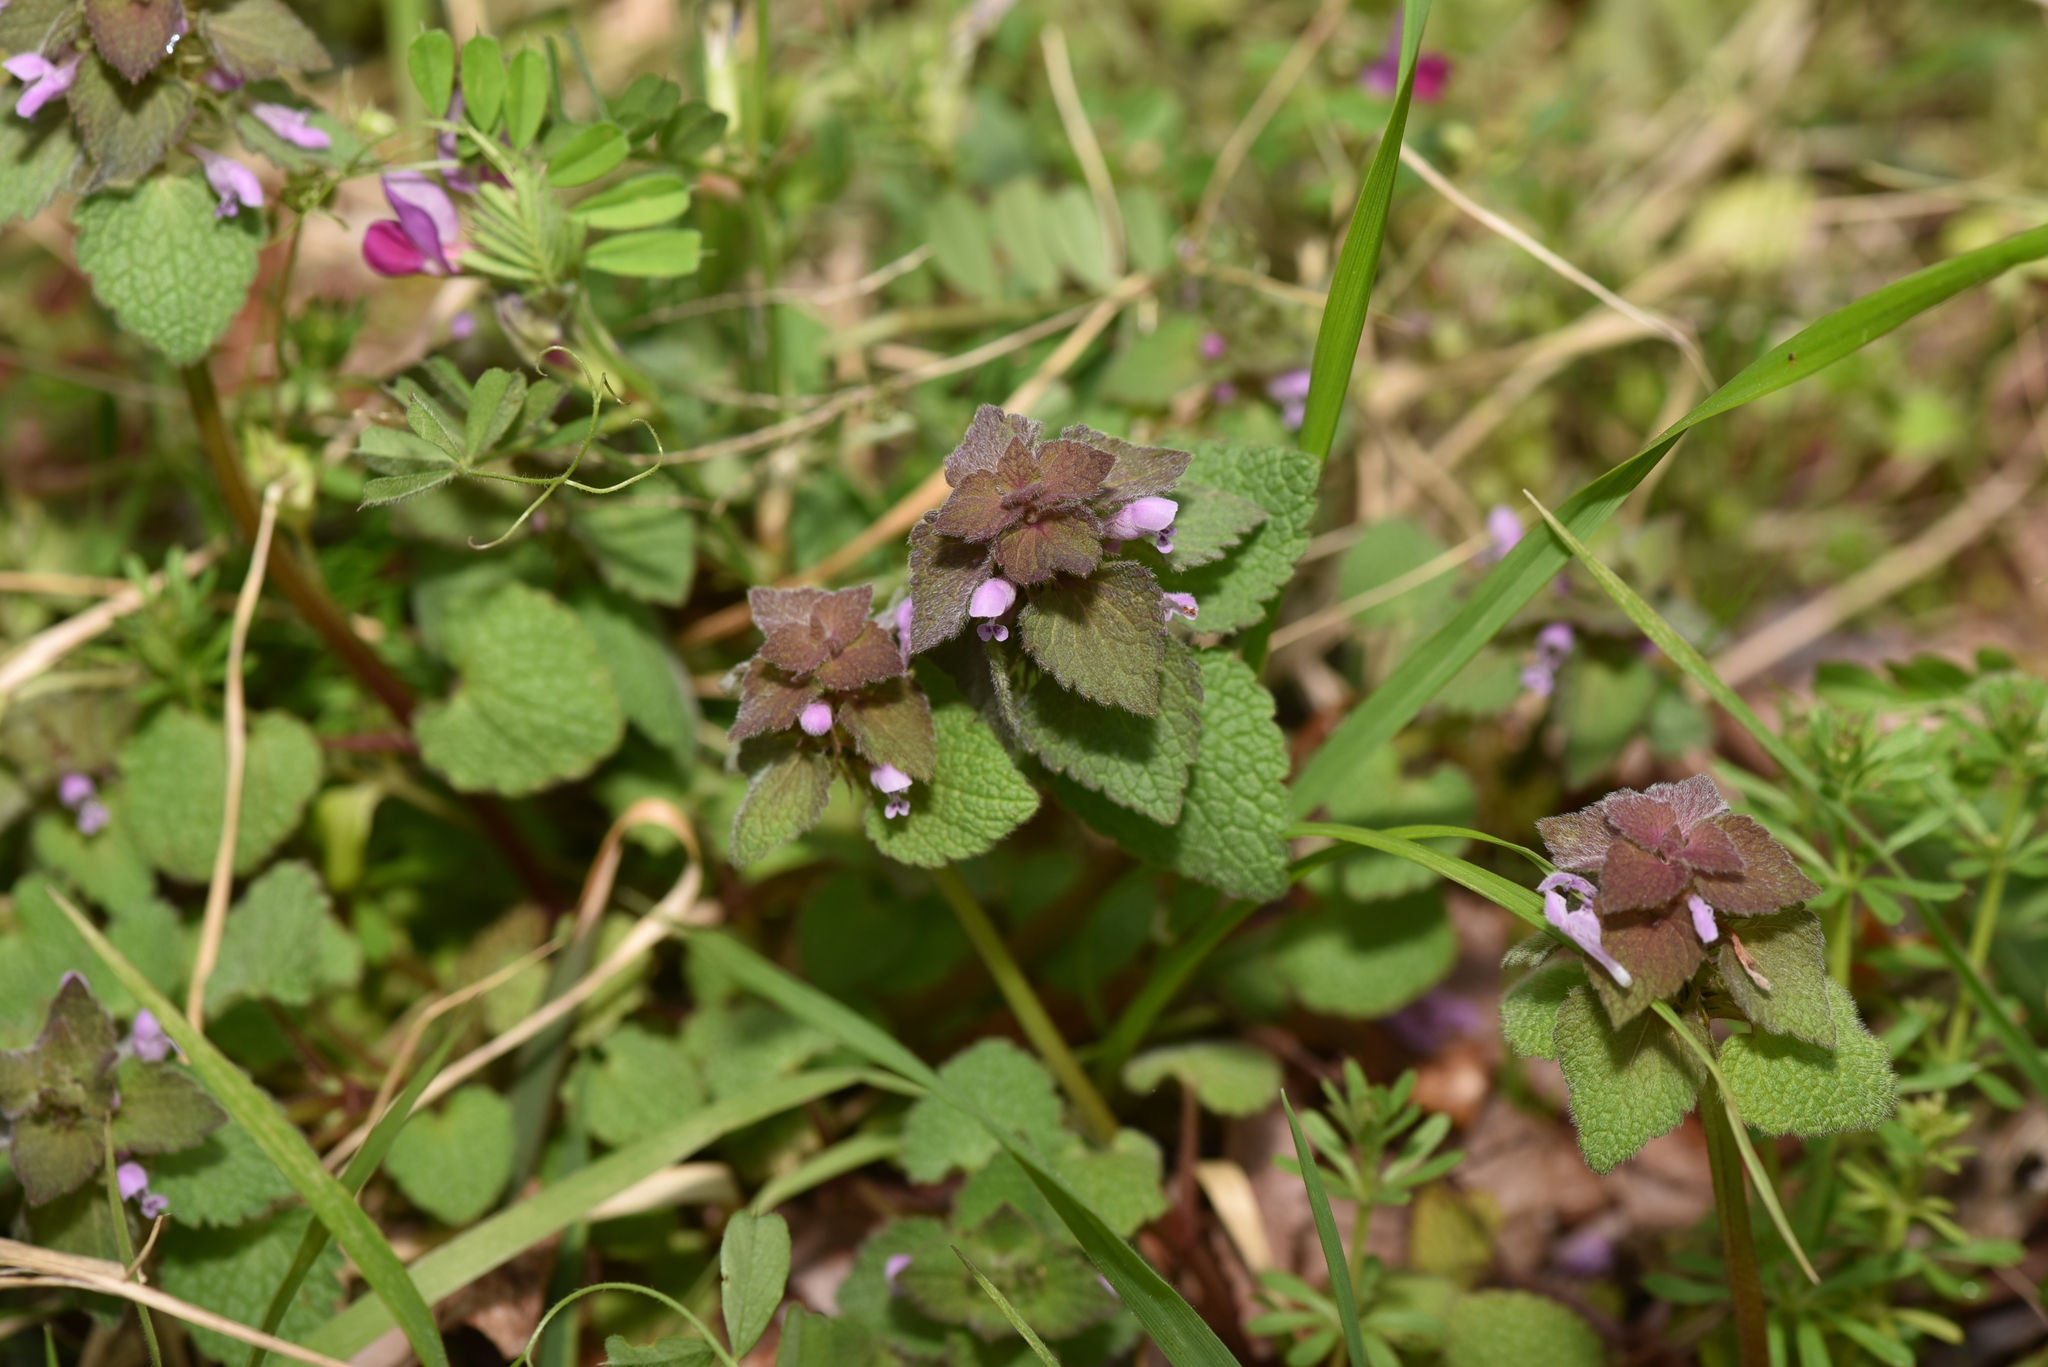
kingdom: Plantae
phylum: Tracheophyta
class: Magnoliopsida
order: Lamiales
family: Lamiaceae
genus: Lamium
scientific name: Lamium purpureum
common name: Red dead-nettle
